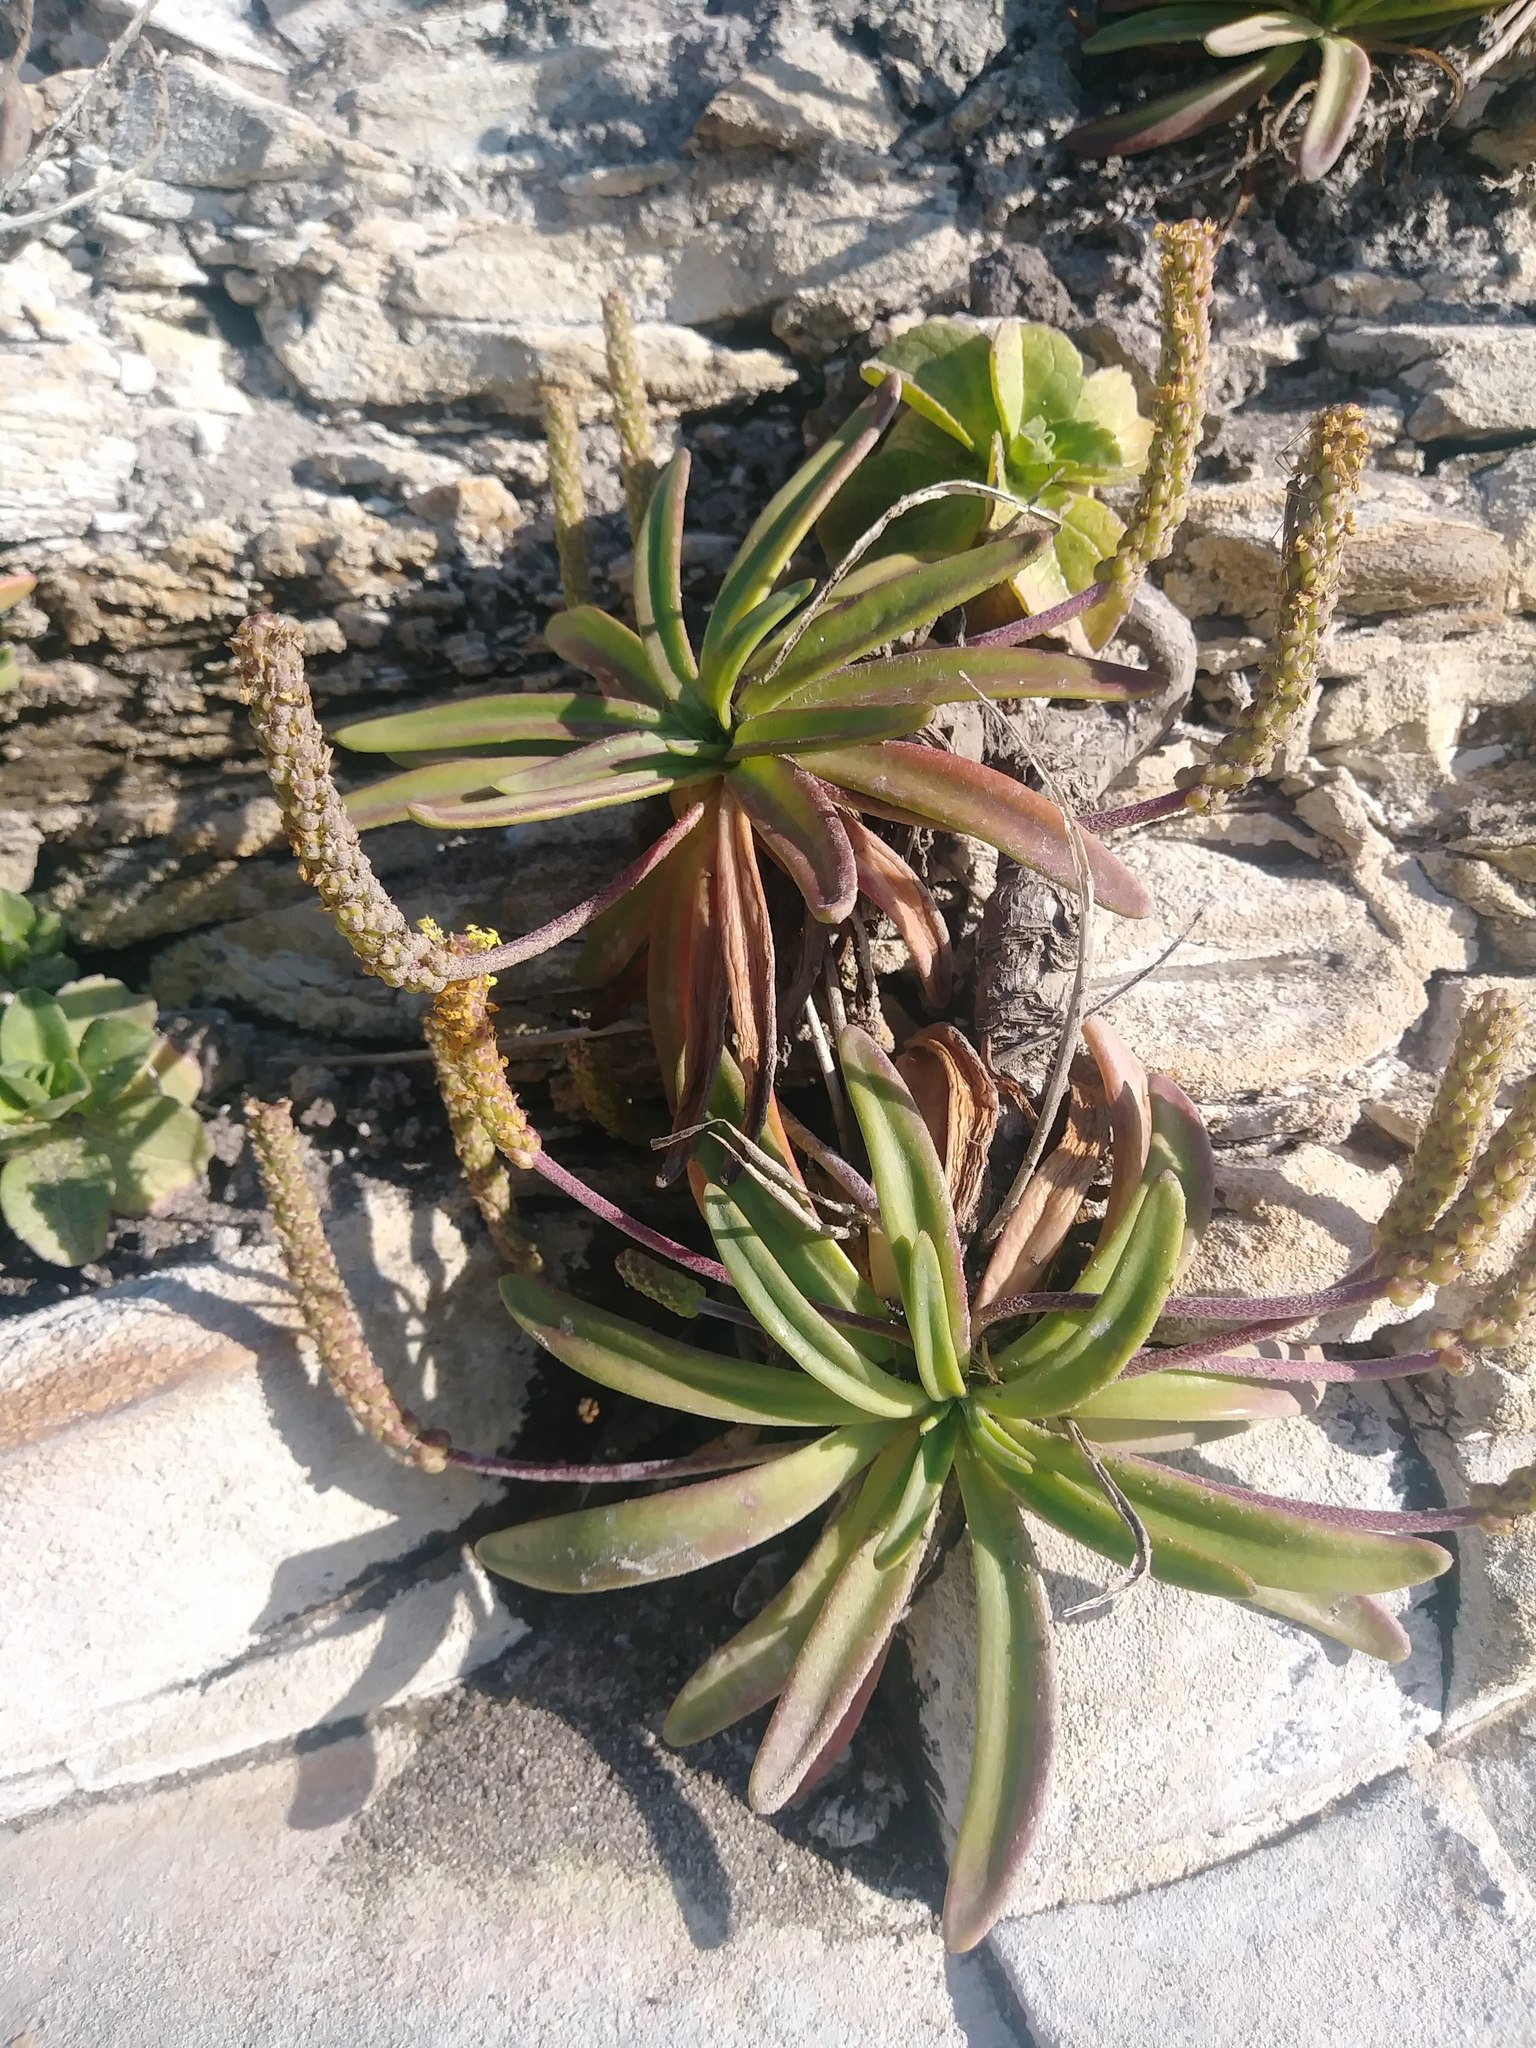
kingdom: Plantae
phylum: Tracheophyta
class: Magnoliopsida
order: Lamiales
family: Plantaginaceae
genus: Plantago
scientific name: Plantago maritima
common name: Sea plantain
